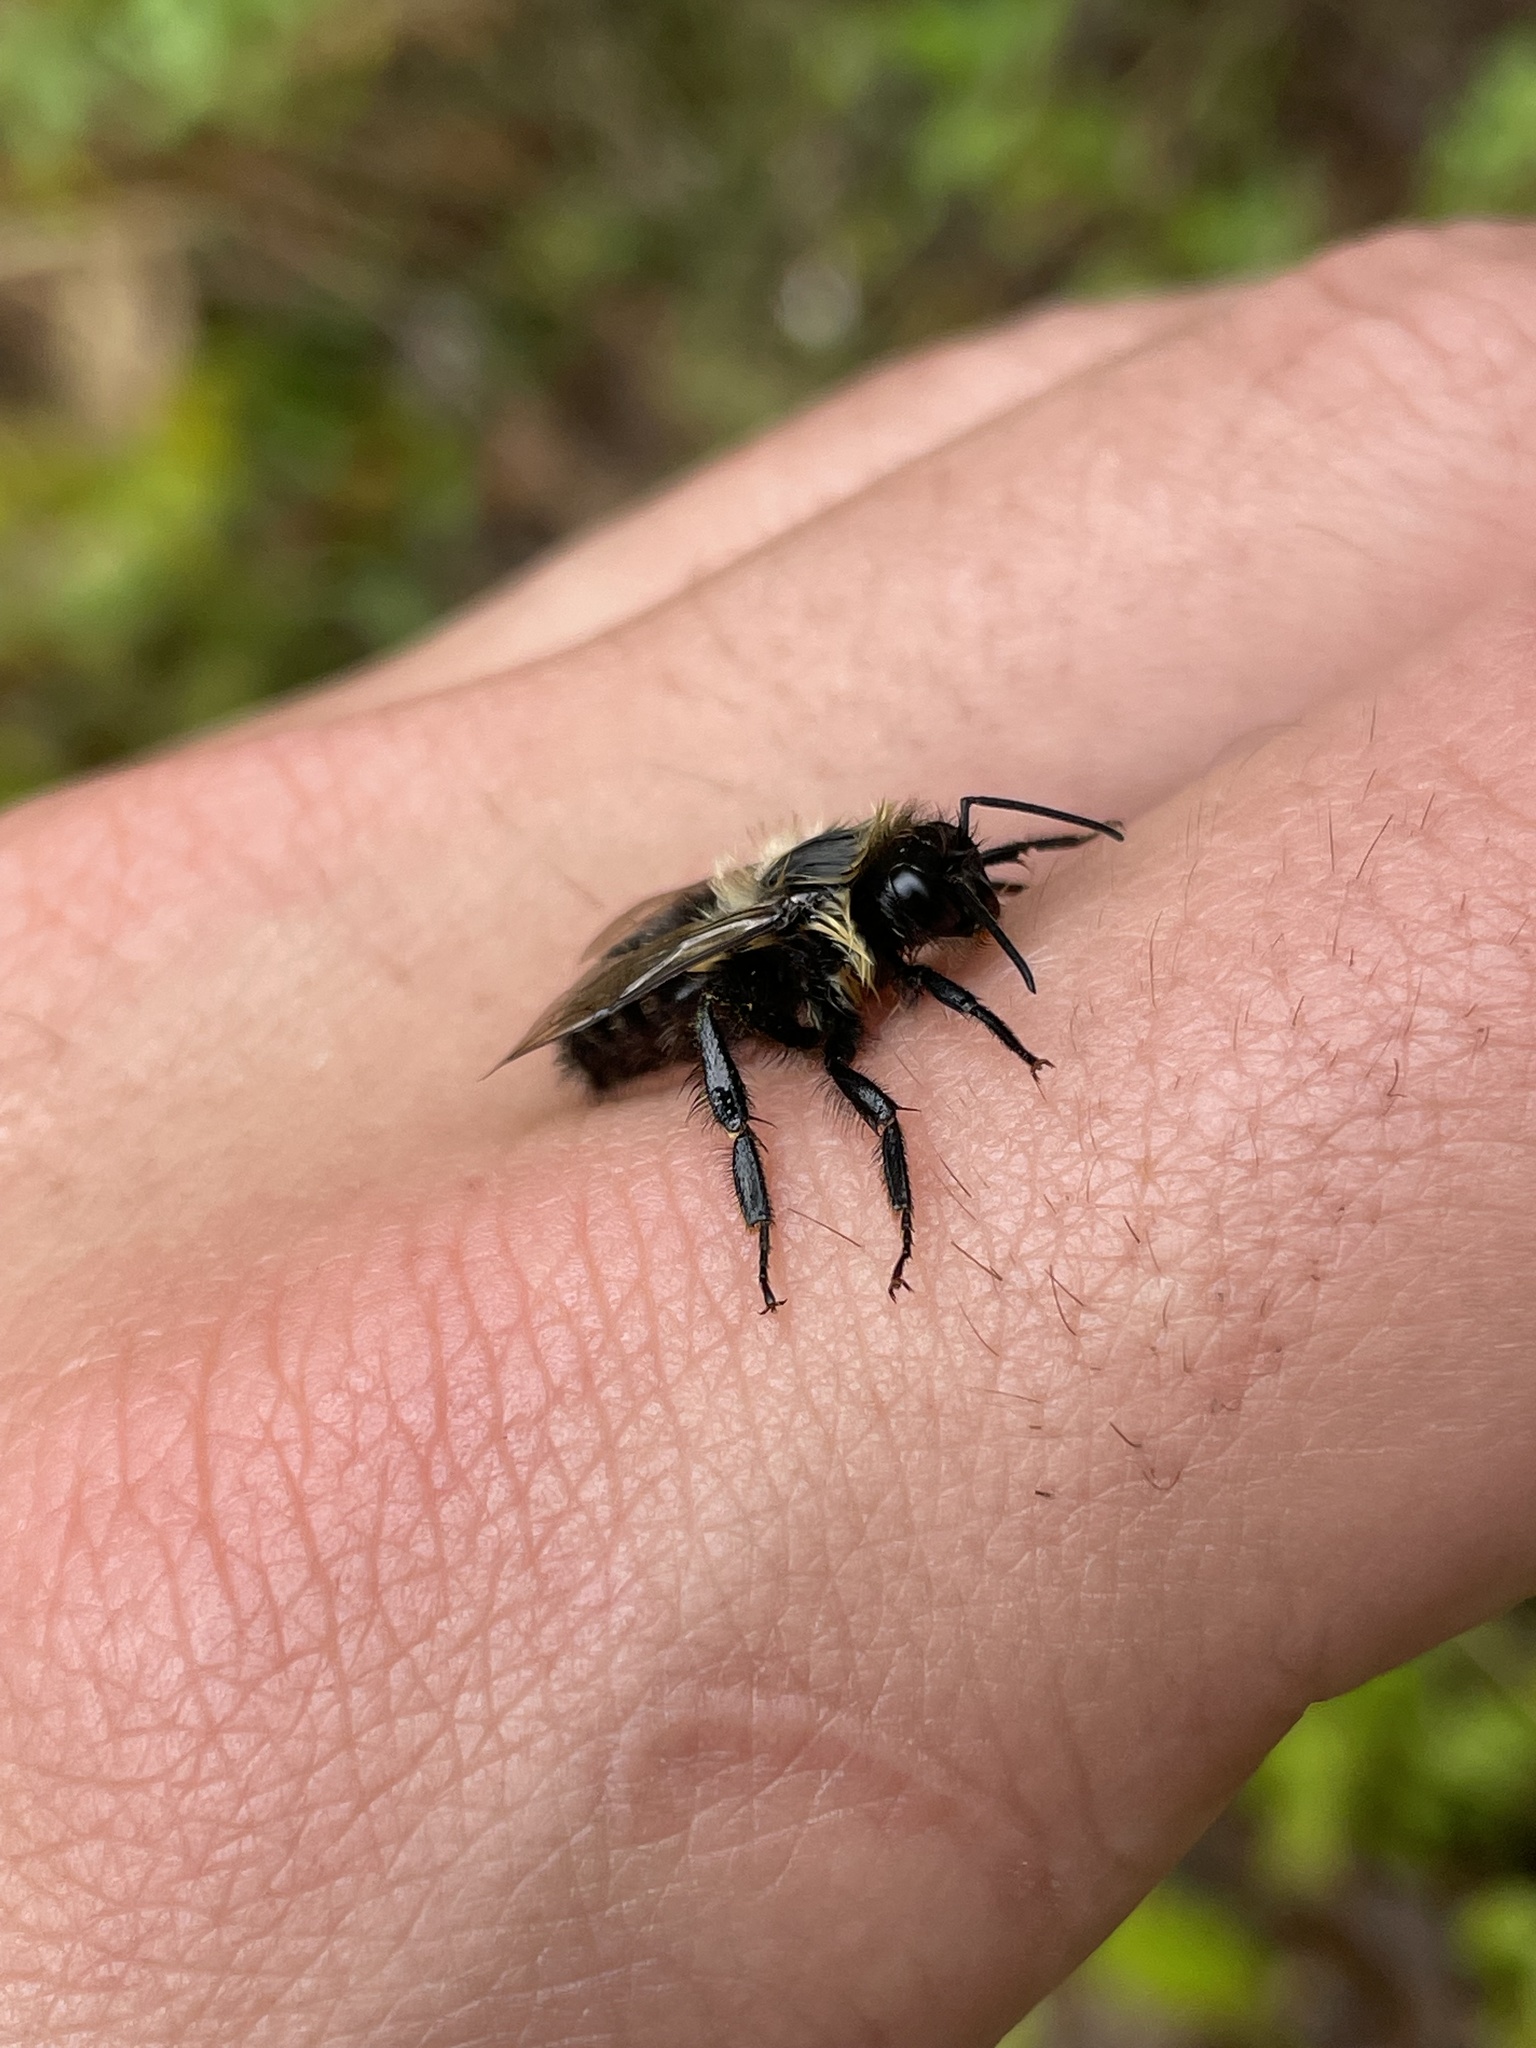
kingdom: Animalia
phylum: Arthropoda
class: Insecta
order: Hymenoptera
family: Apidae
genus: Bombus
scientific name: Bombus impatiens
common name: Common eastern bumble bee
